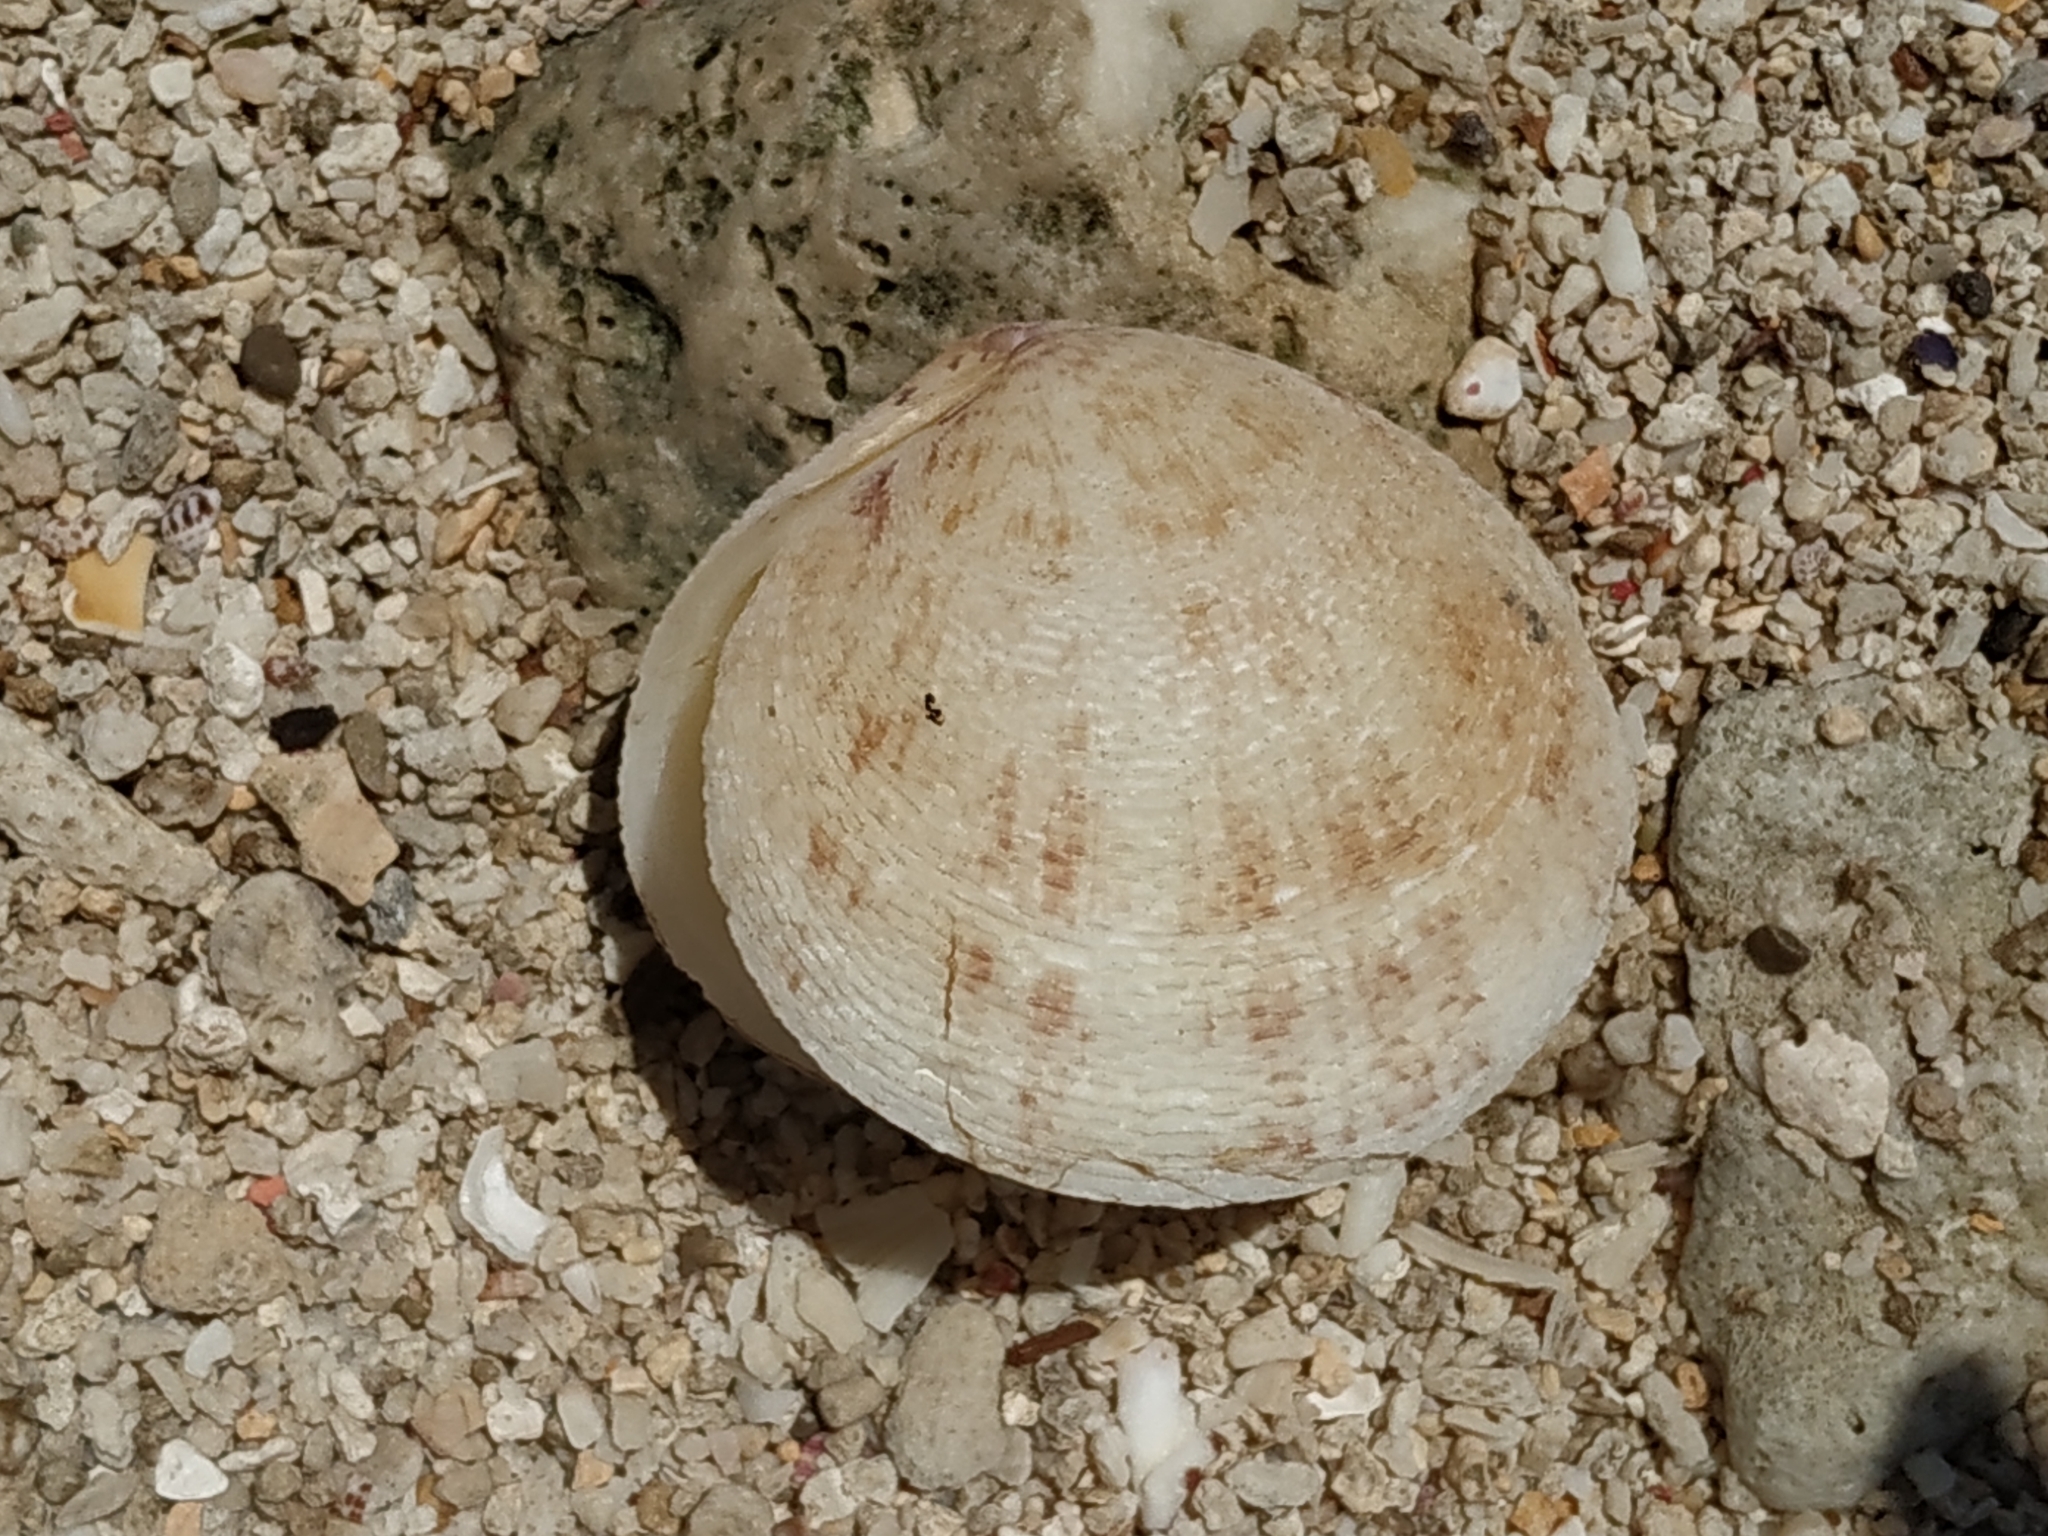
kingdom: Animalia
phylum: Mollusca
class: Bivalvia
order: Cardiida
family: Tellinidae
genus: Scutarcopagia
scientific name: Scutarcopagia scobinata
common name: Rasp tellin
